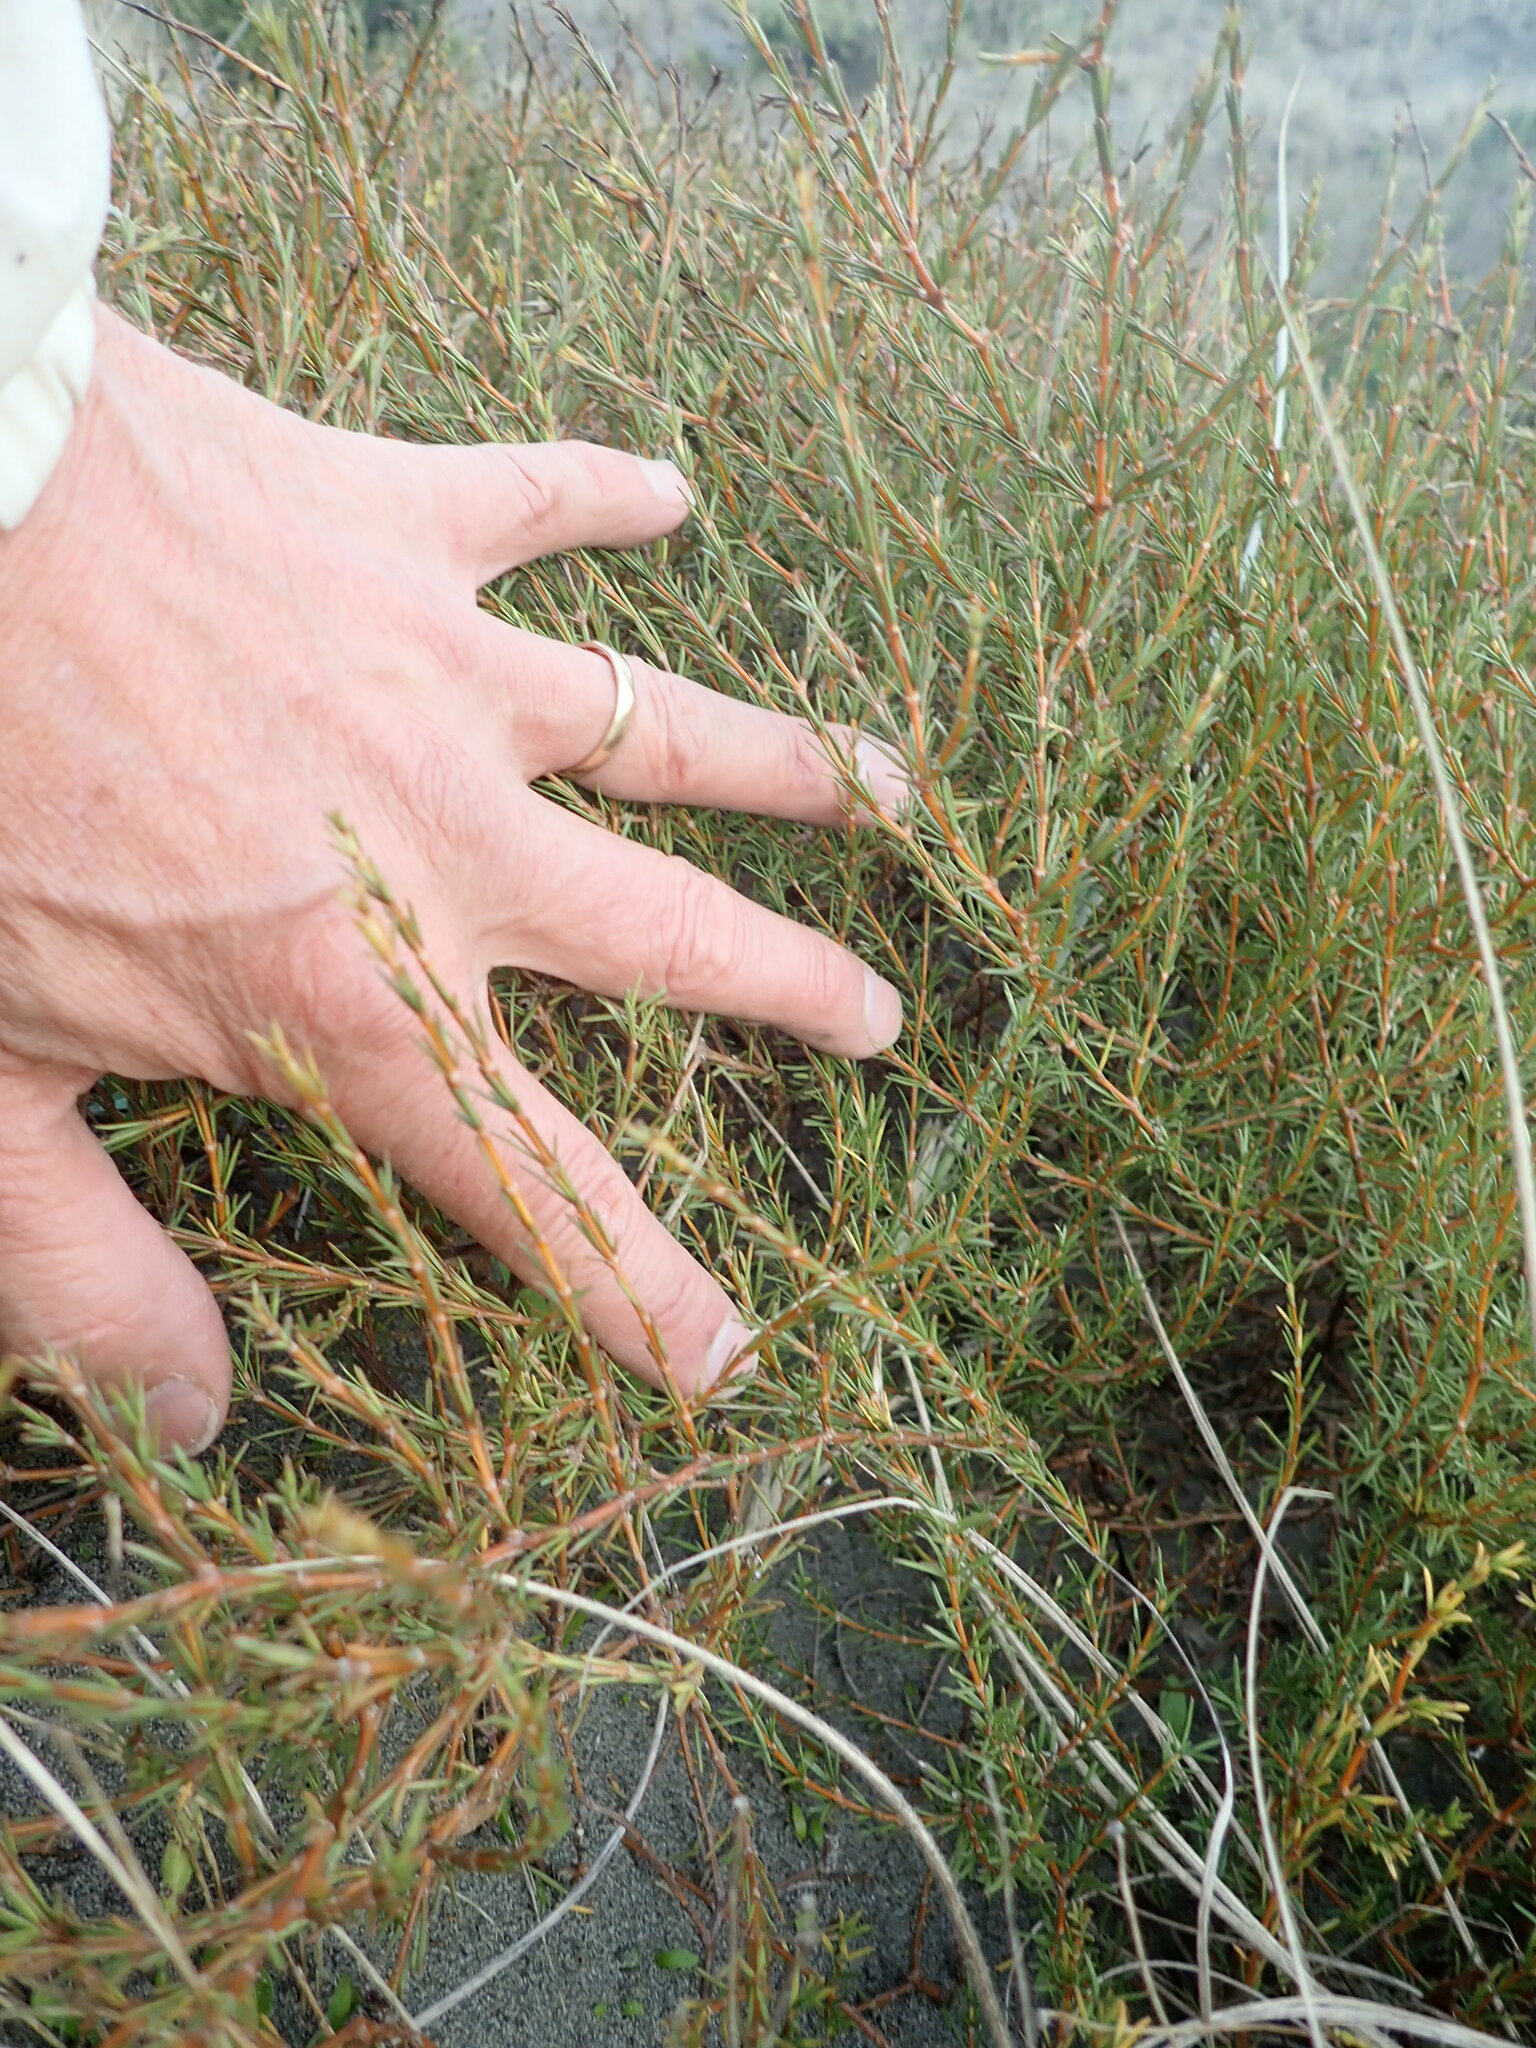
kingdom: Plantae
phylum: Tracheophyta
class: Magnoliopsida
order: Gentianales
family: Rubiaceae
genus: Coprosma
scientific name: Coprosma acerosa
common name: Sand coprosma
